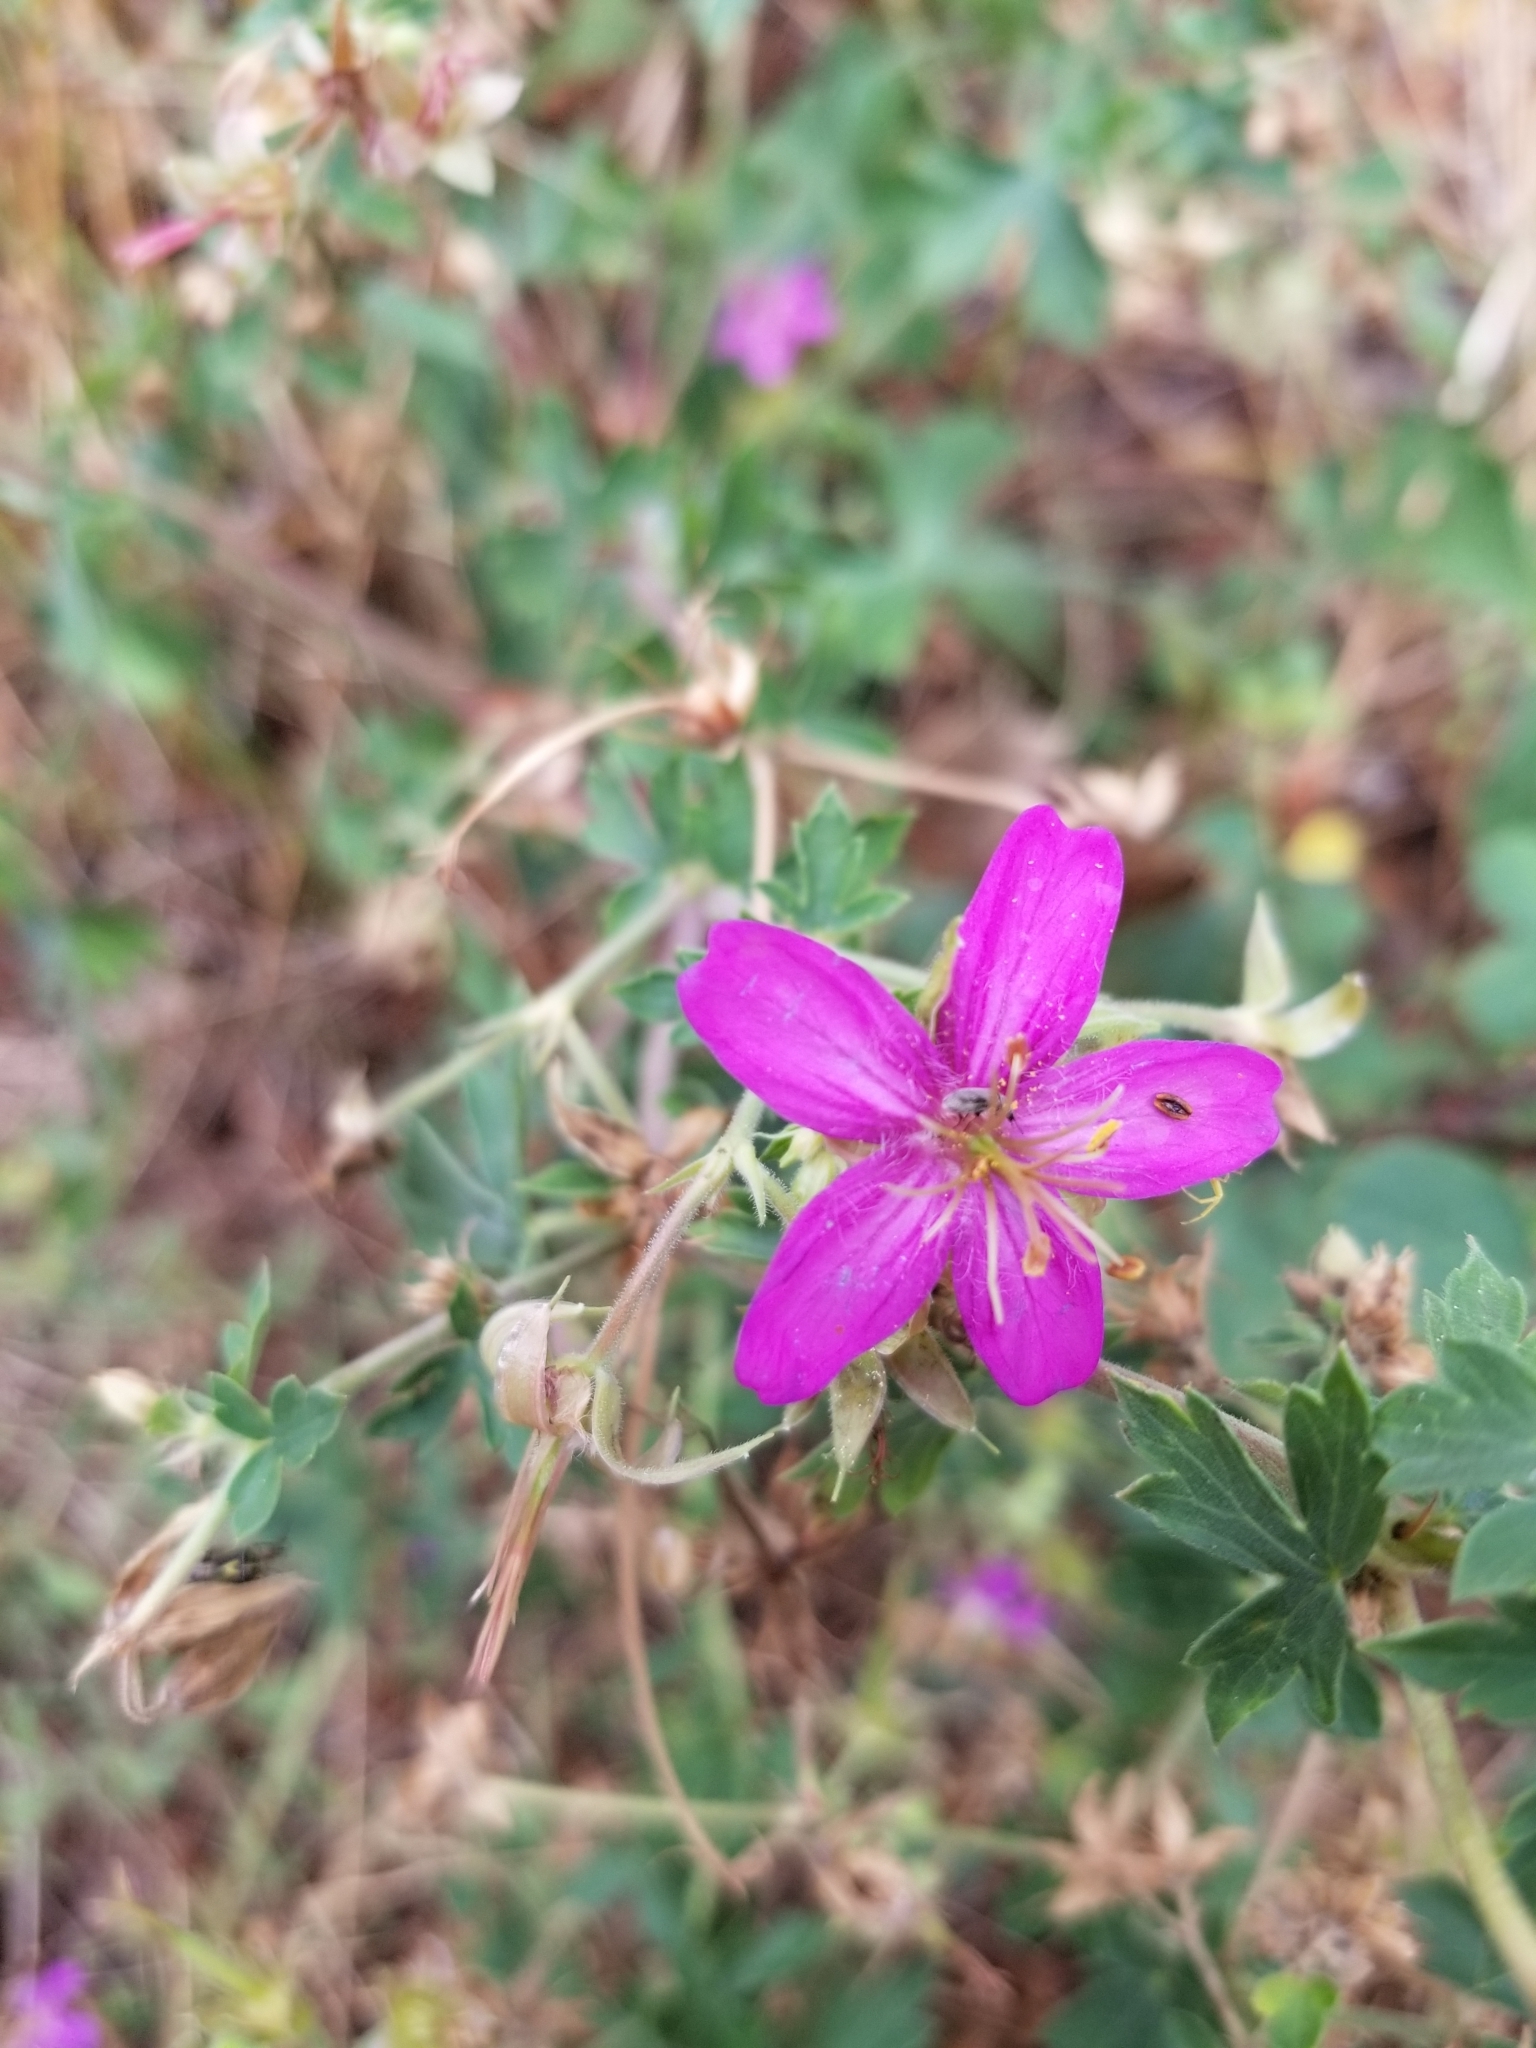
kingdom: Plantae
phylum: Tracheophyta
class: Magnoliopsida
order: Geraniales
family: Geraniaceae
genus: Geranium
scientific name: Geranium caespitosum
